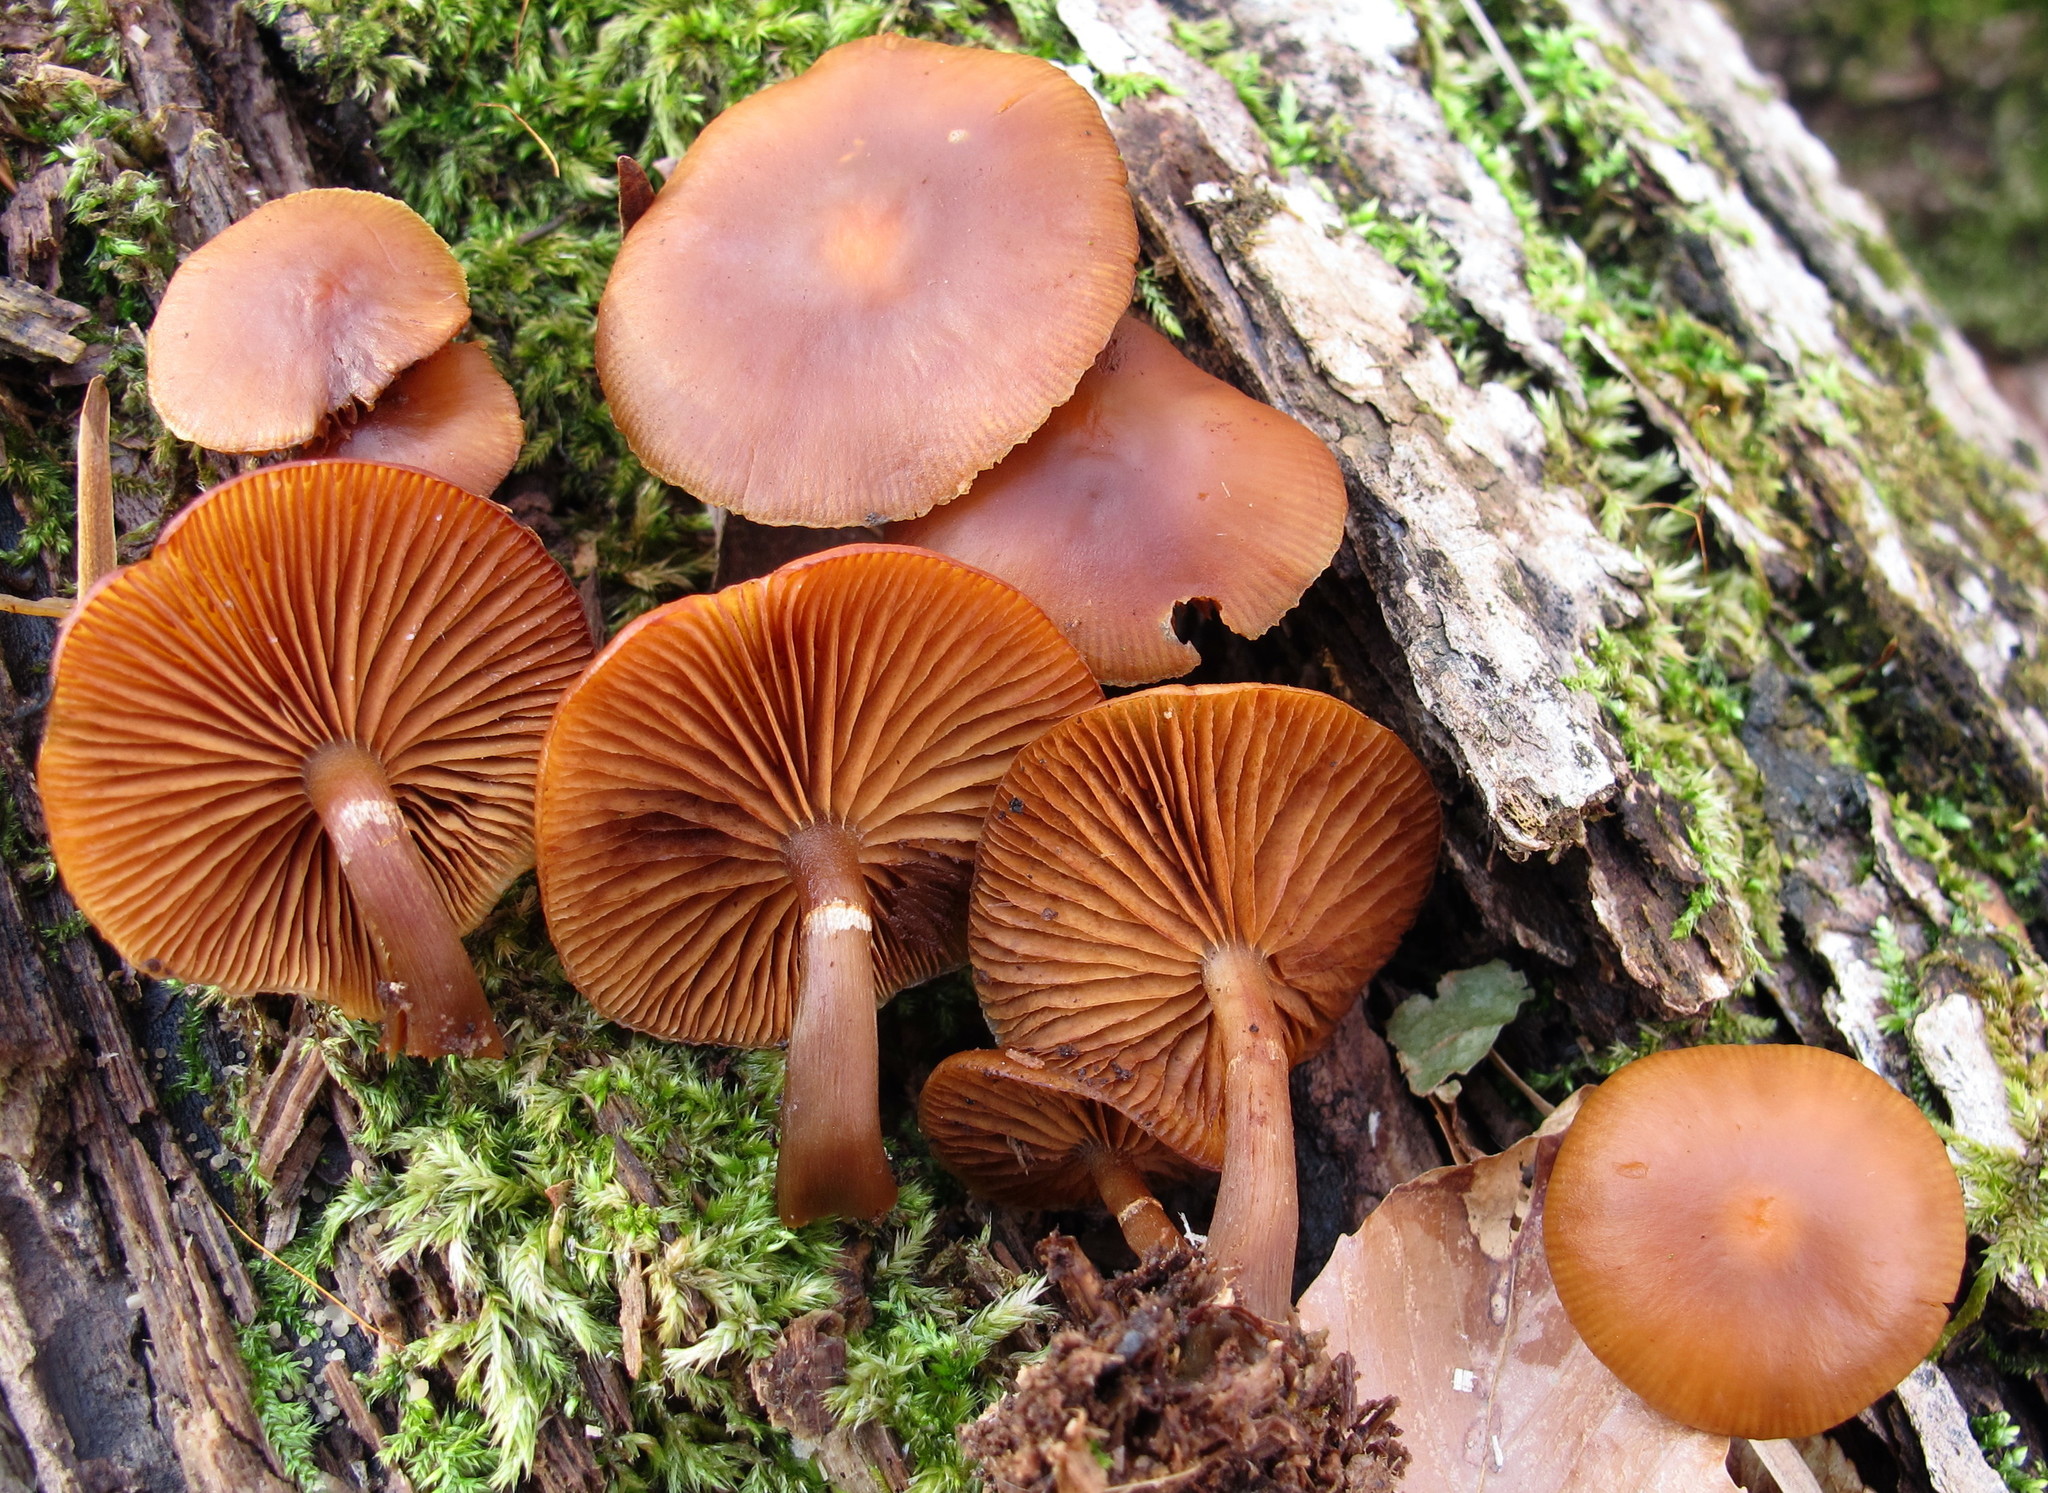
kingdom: Fungi
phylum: Basidiomycota
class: Agaricomycetes
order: Agaricales
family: Hymenogastraceae
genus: Galerina
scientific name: Galerina marginata
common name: Funeral bell
